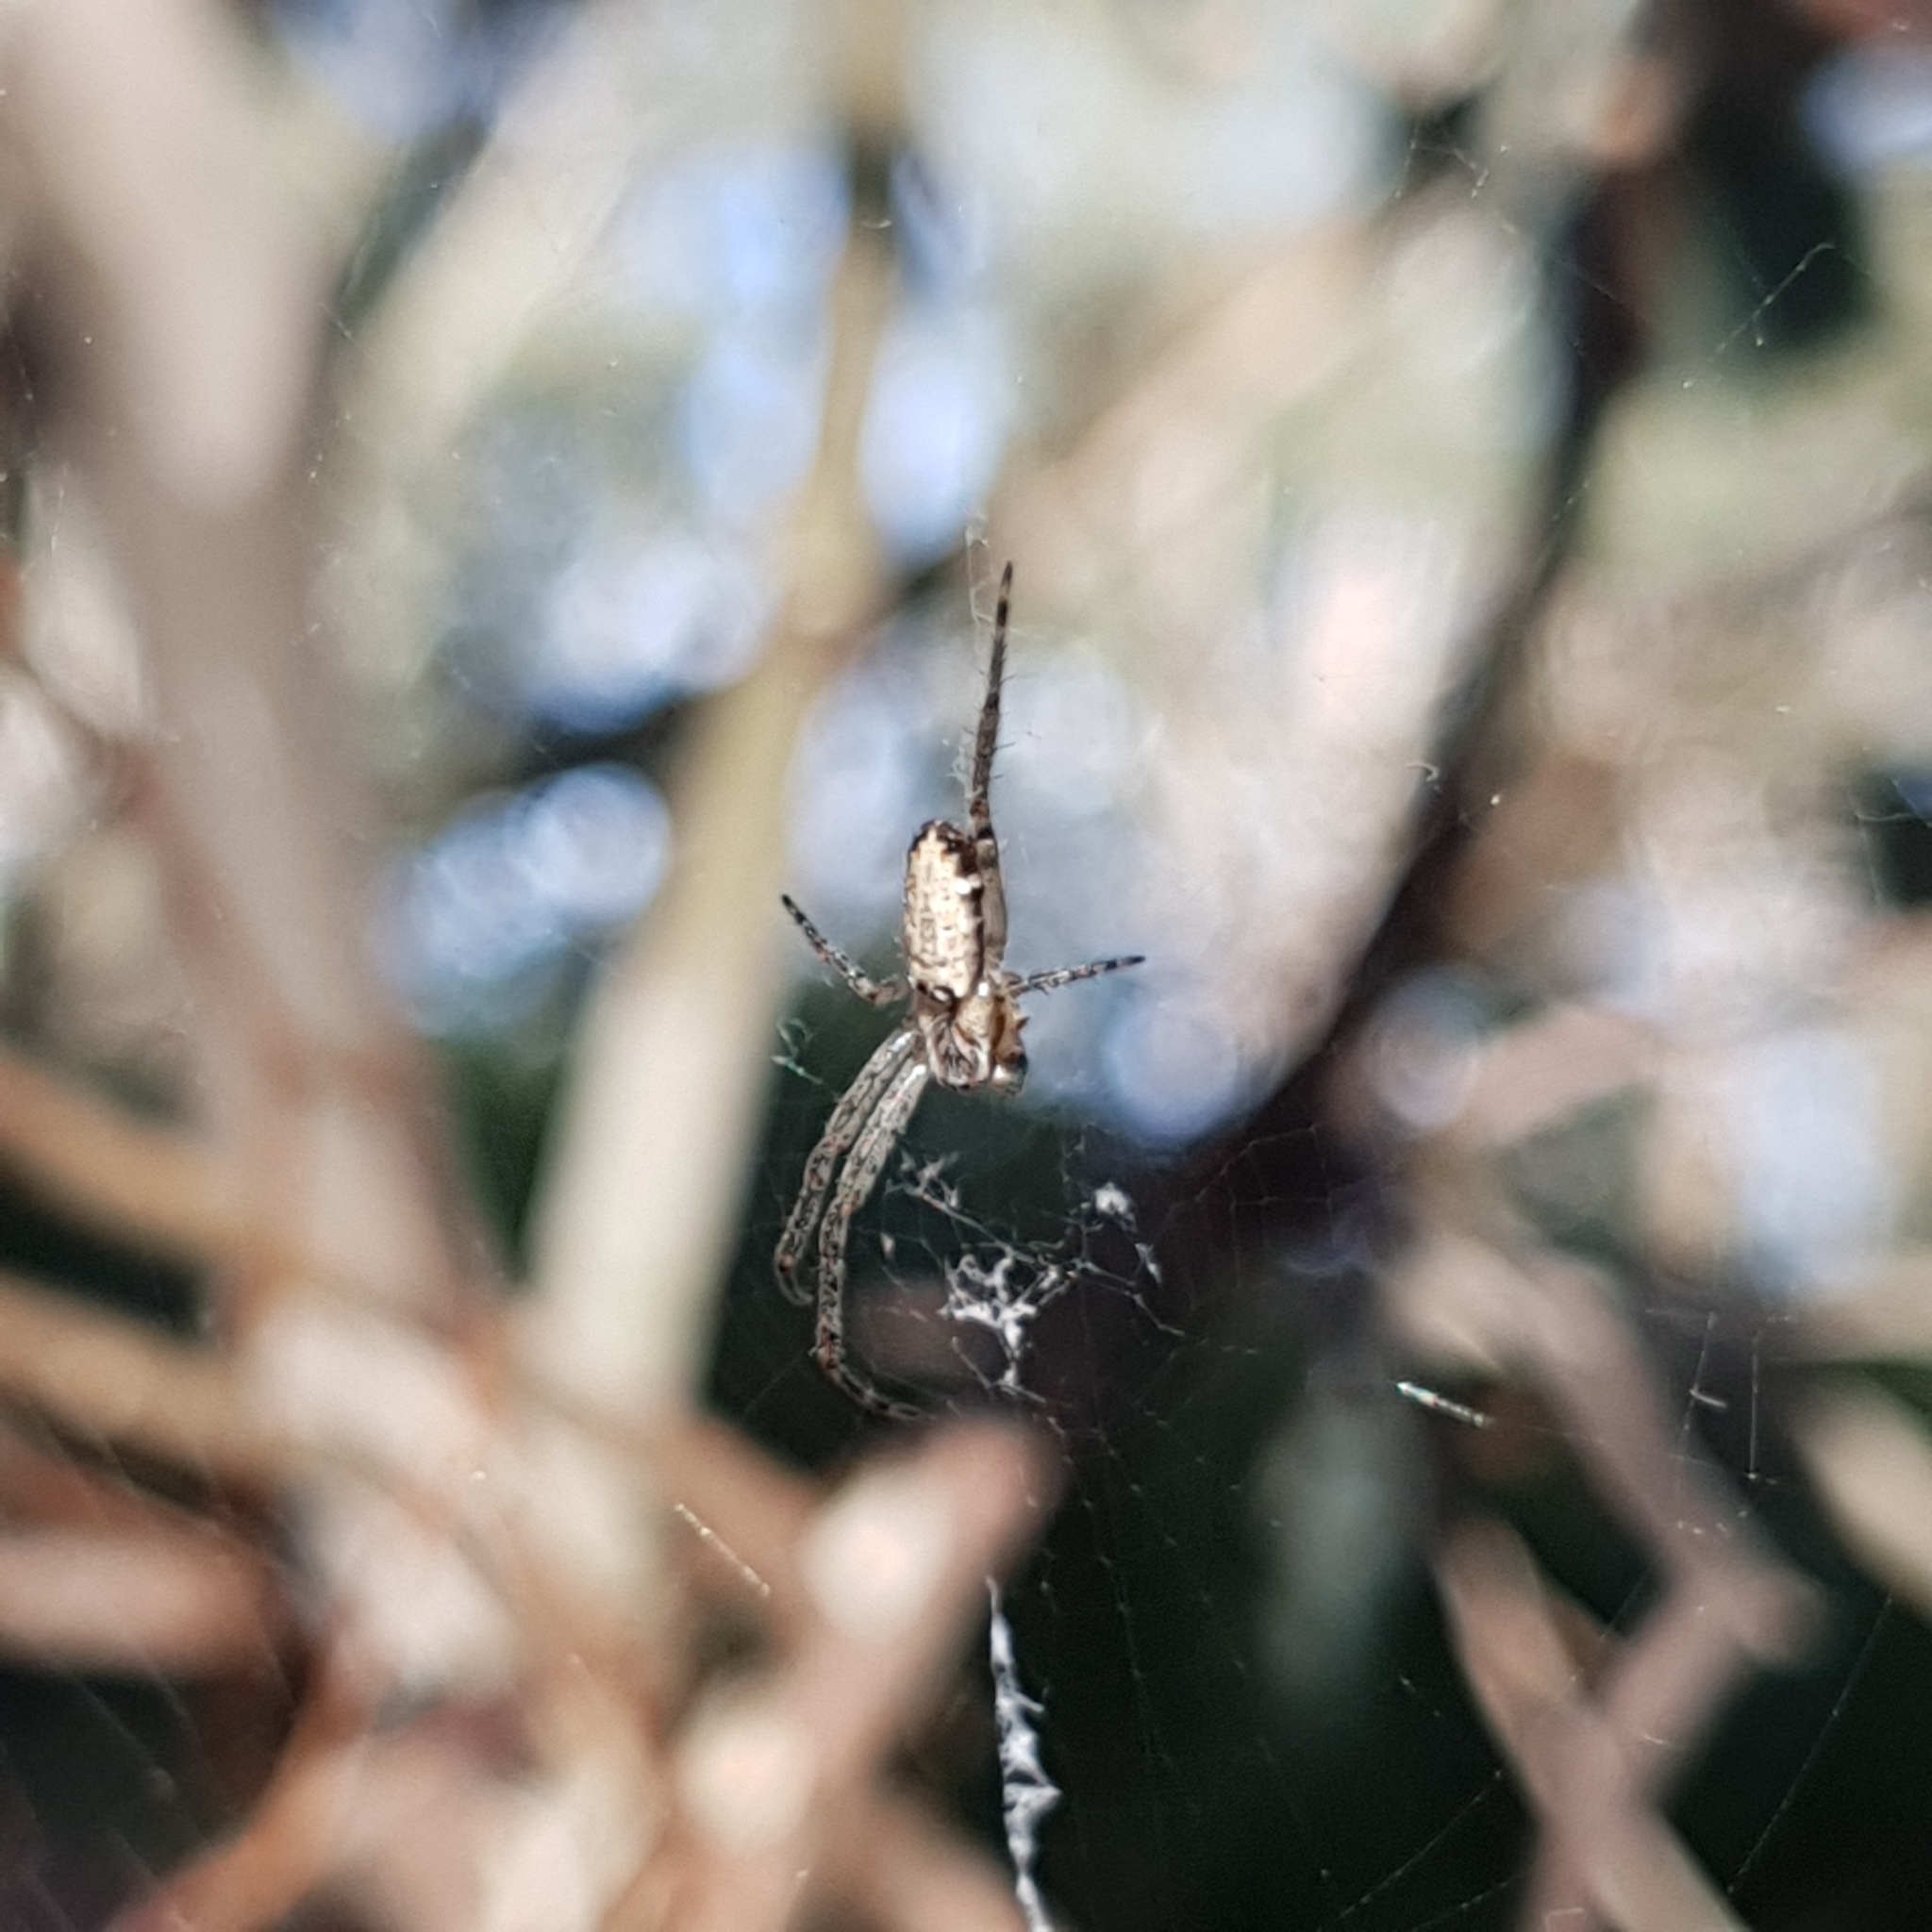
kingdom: Animalia
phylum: Arthropoda
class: Arachnida
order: Araneae
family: Araneidae
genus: Plebs
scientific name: Plebs eburnus
